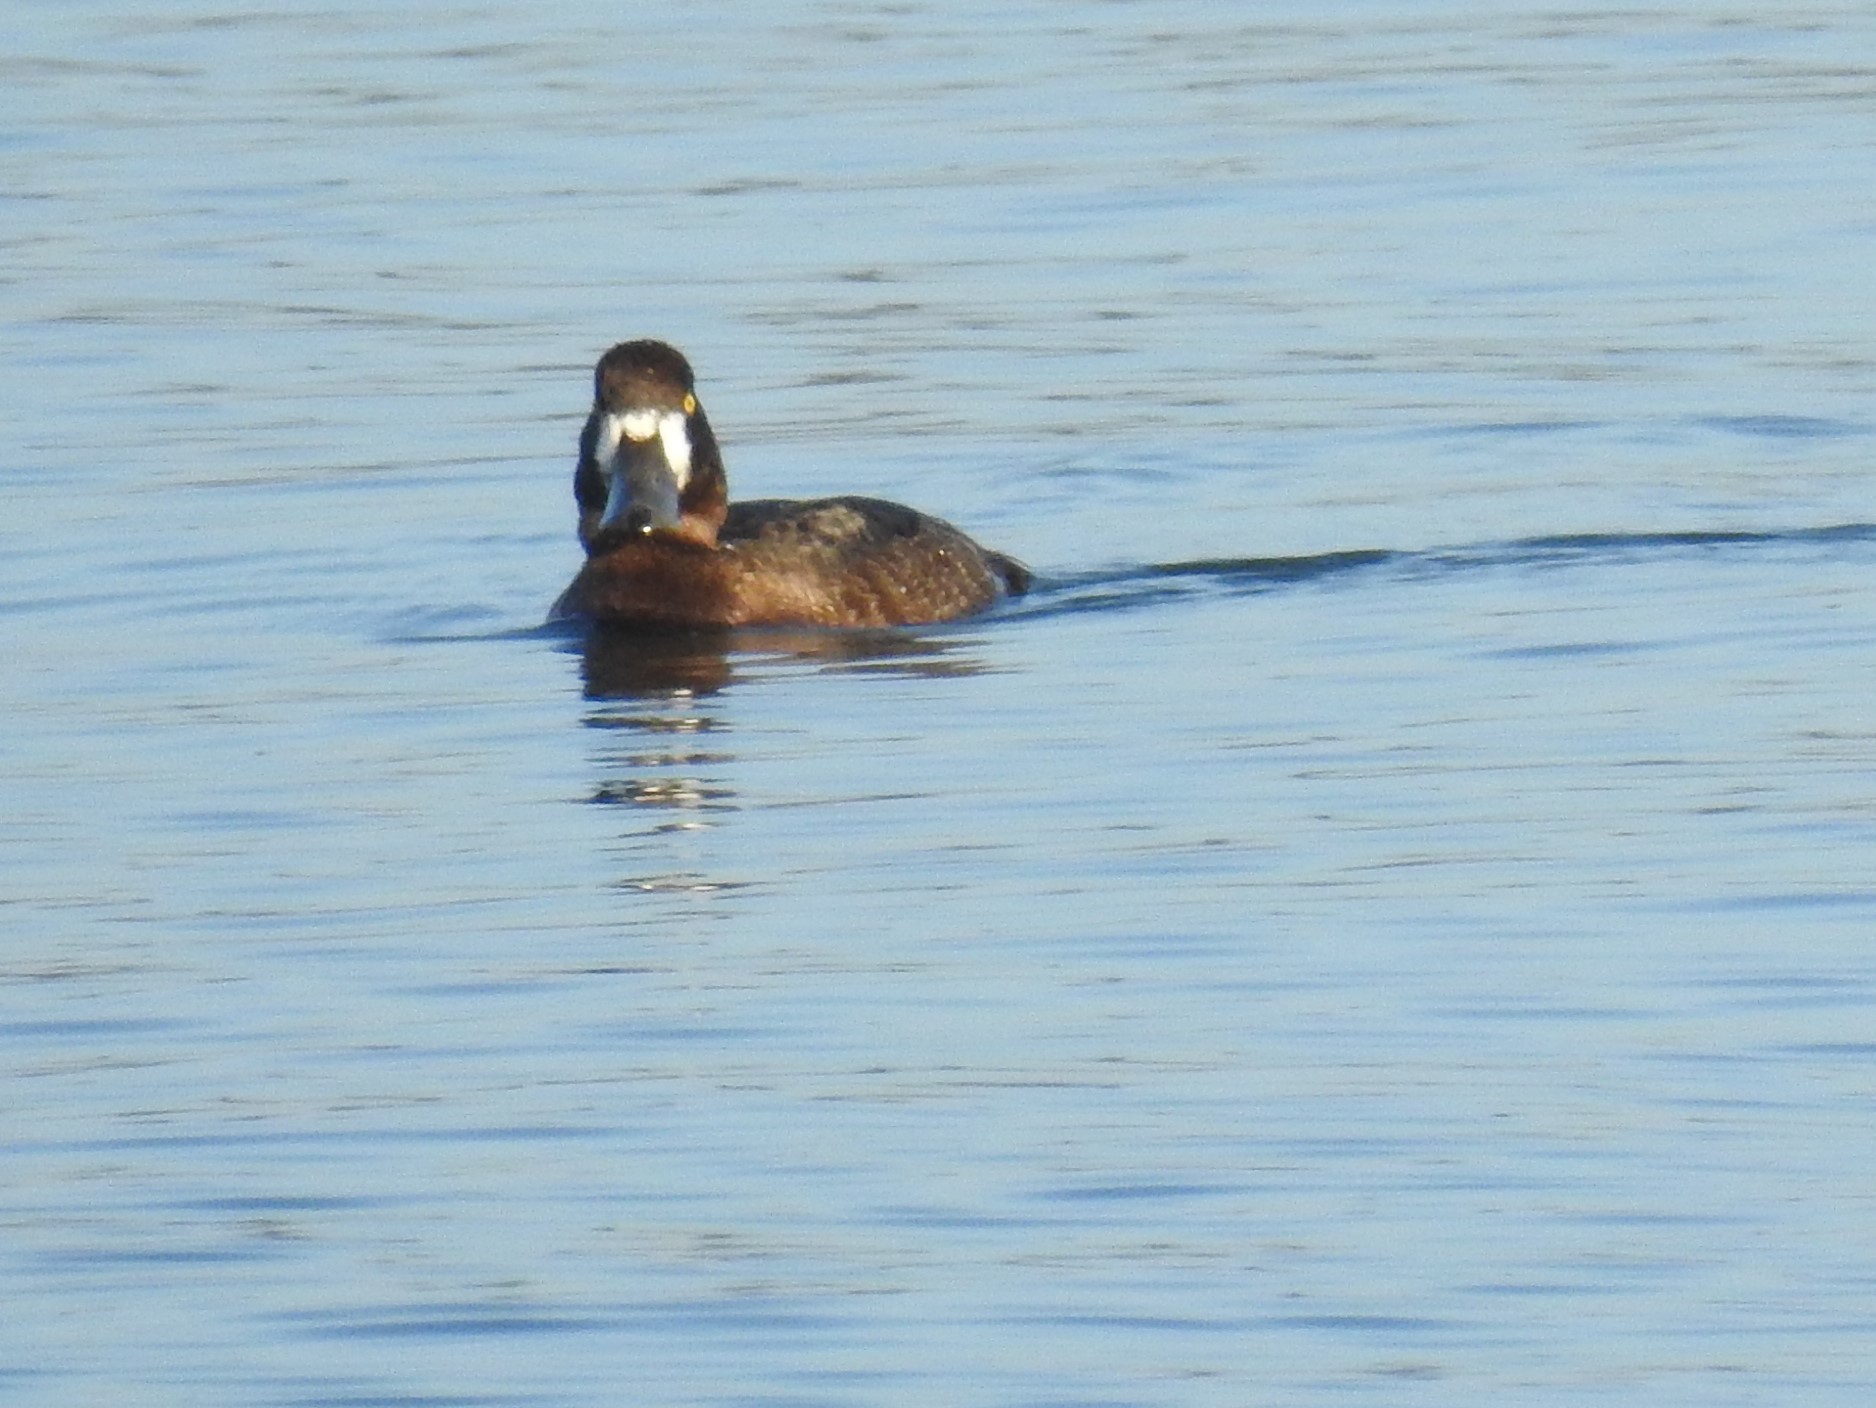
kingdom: Animalia
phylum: Chordata
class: Aves
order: Anseriformes
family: Anatidae
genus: Aythya
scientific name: Aythya marila
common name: Greater scaup
